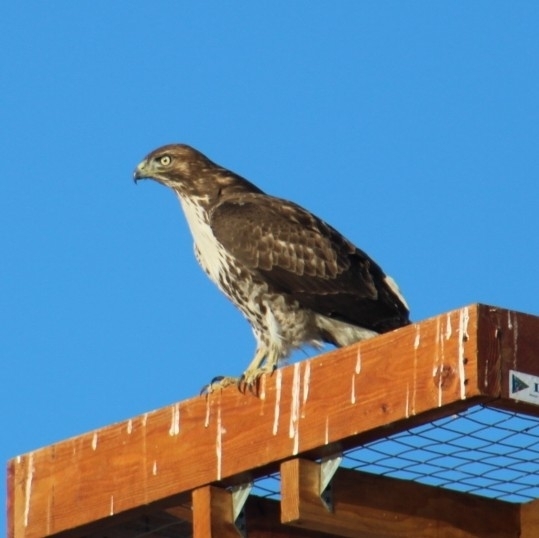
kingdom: Animalia
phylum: Chordata
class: Aves
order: Accipitriformes
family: Accipitridae
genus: Buteo
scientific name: Buteo jamaicensis
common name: Red-tailed hawk
